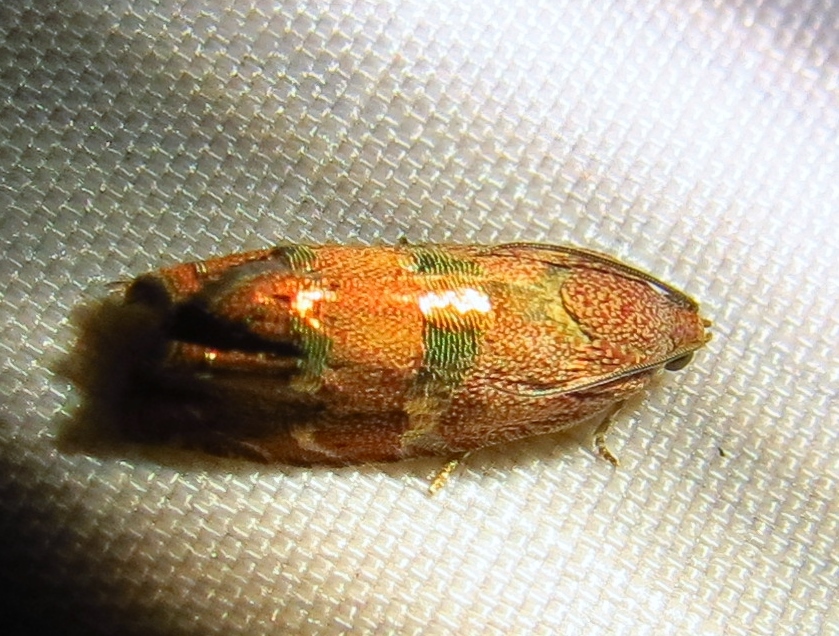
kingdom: Animalia
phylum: Arthropoda
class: Insecta
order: Lepidoptera
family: Tortricidae
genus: Cydia
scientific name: Cydia latiferreana
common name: Filbertworm moth
